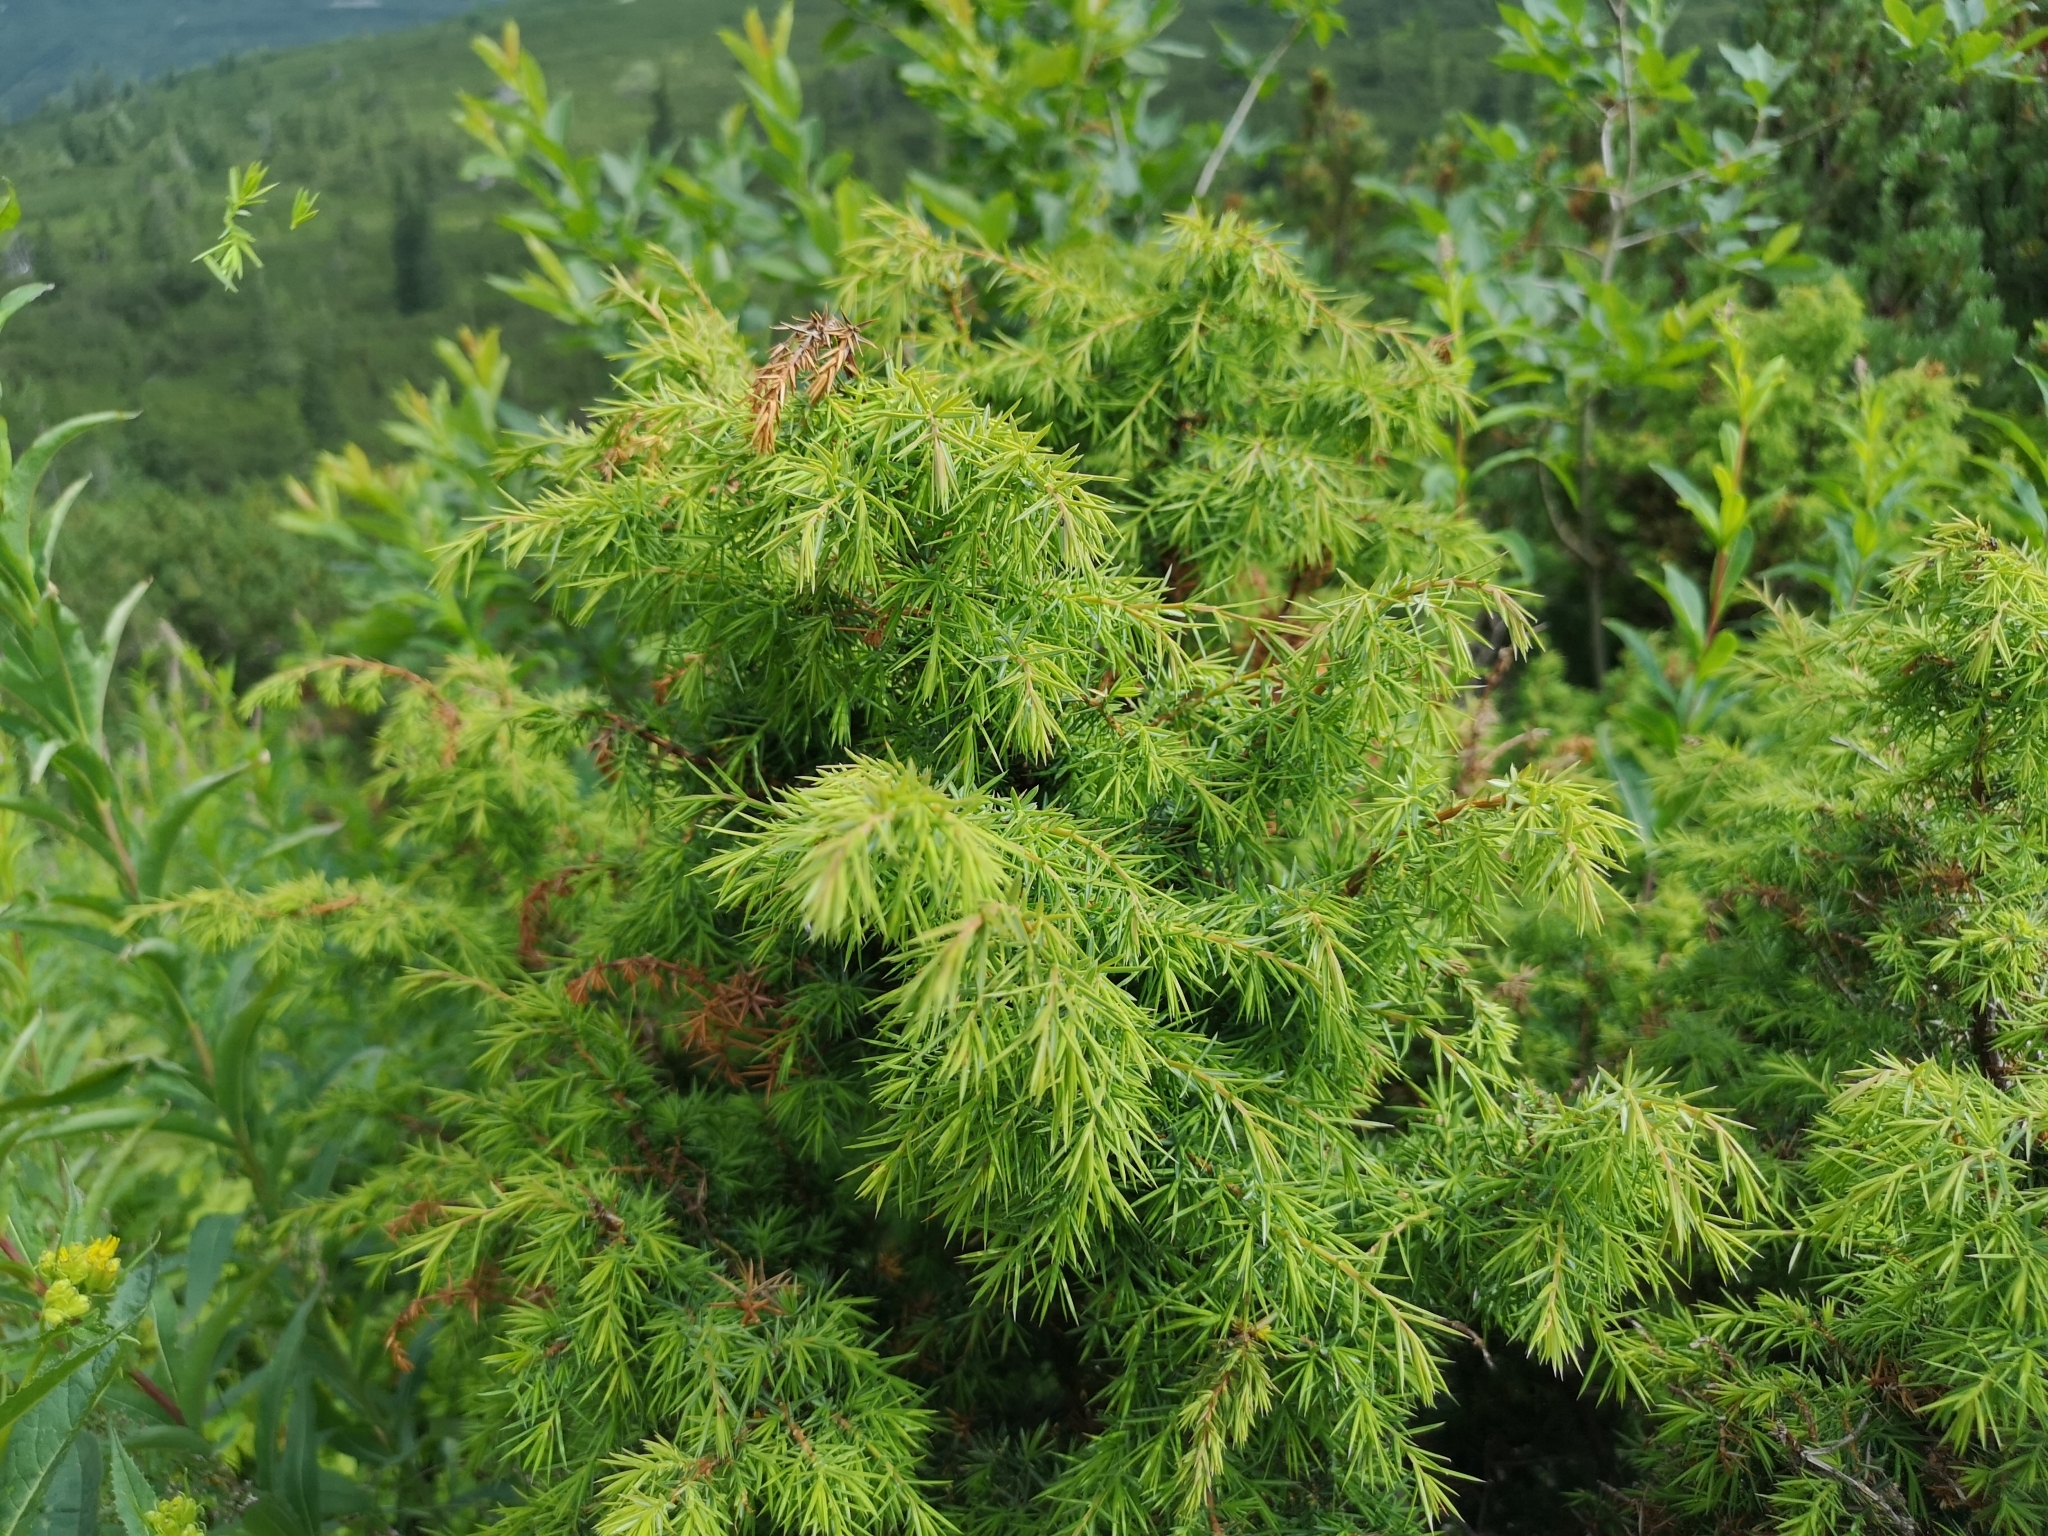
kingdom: Plantae
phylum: Tracheophyta
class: Pinopsida
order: Pinales
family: Cupressaceae
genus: Juniperus
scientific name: Juniperus communis
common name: Common juniper
